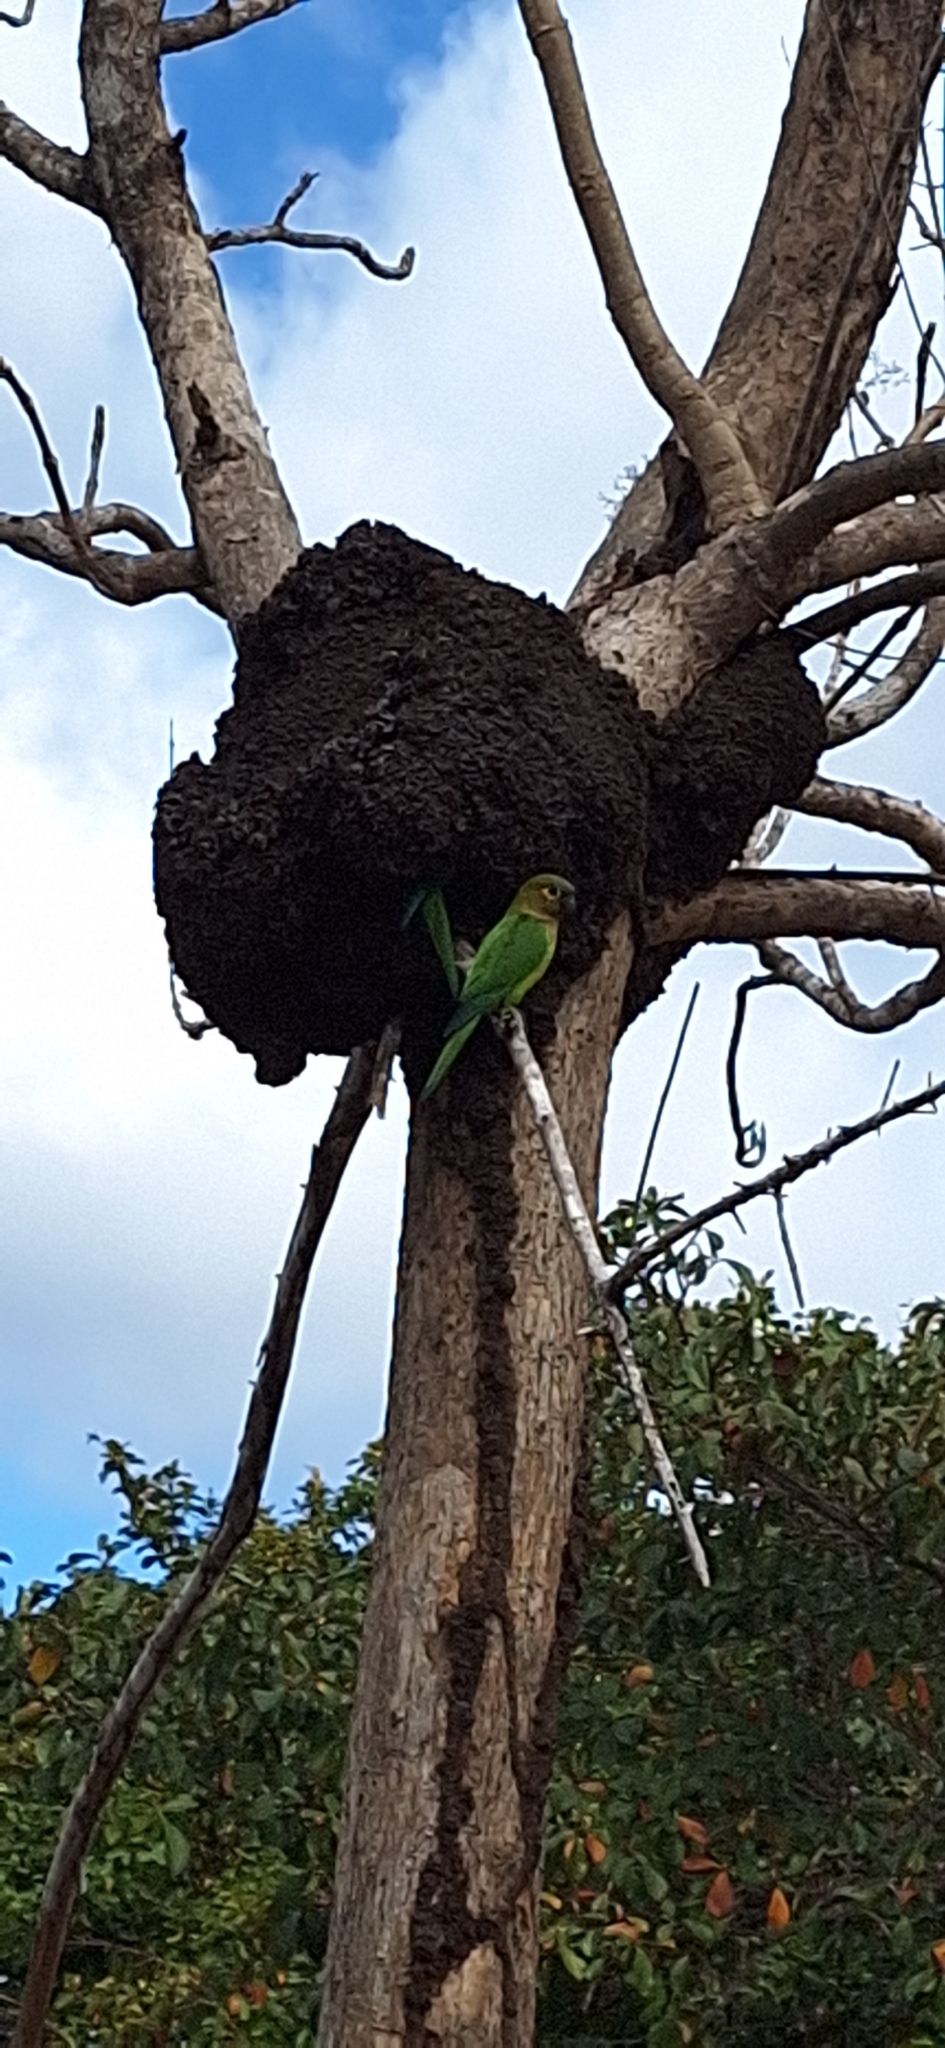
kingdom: Animalia
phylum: Chordata
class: Aves
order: Psittaciformes
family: Psittacidae
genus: Aratinga
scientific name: Aratinga pertinax
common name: Brown-throated parakeet
